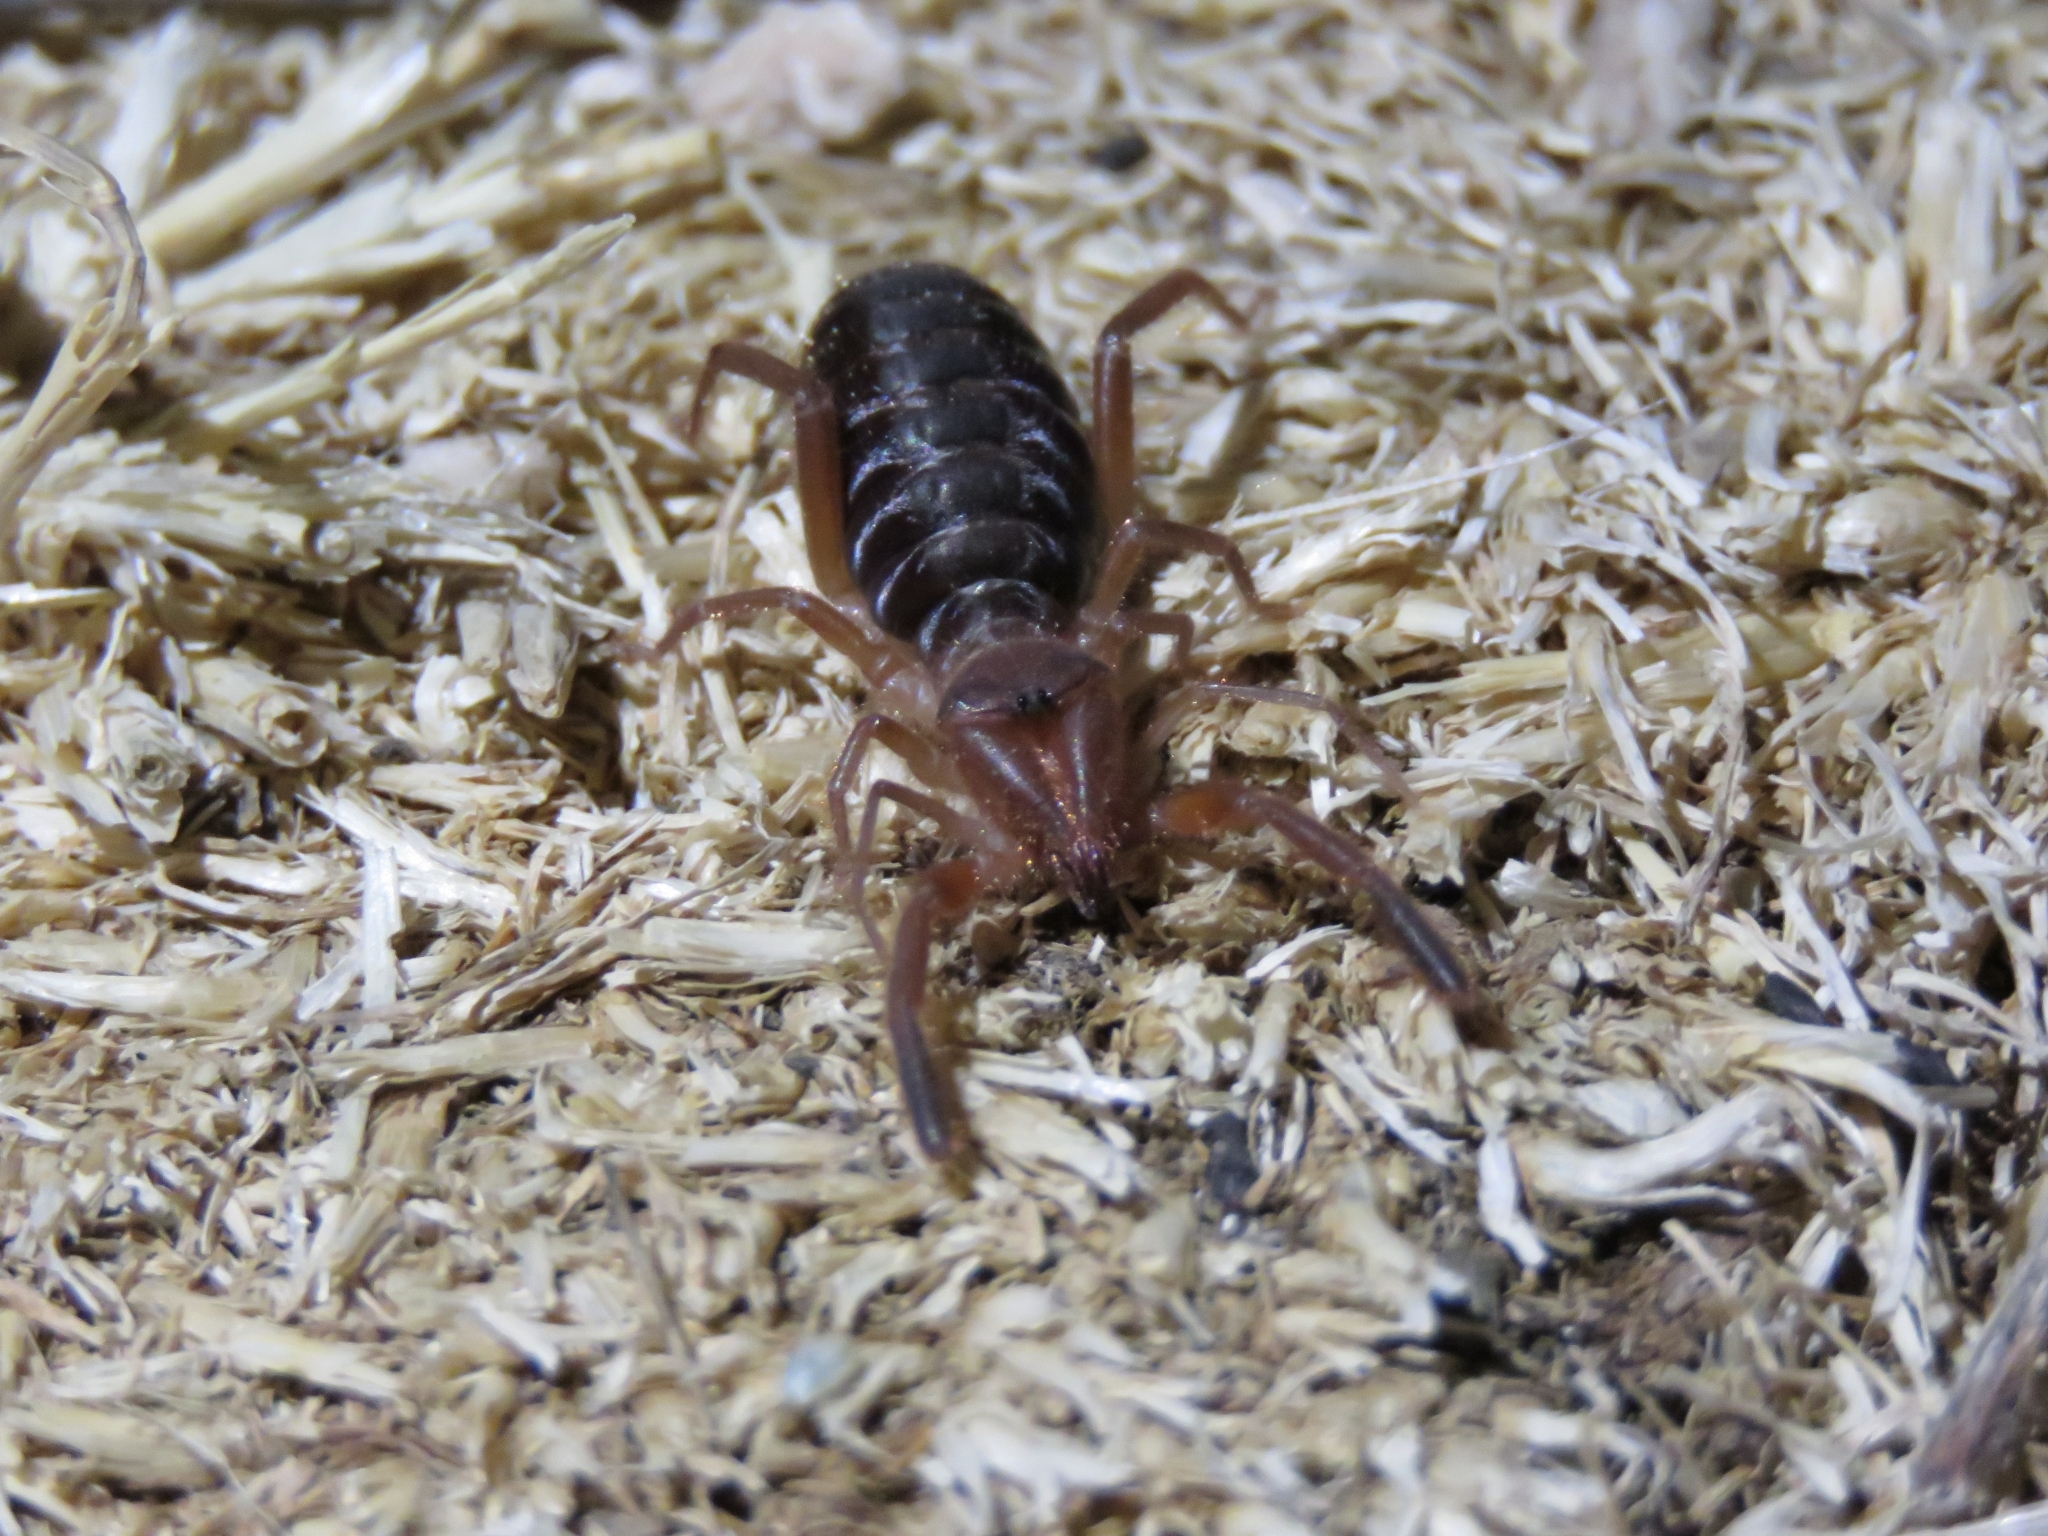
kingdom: Animalia
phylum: Arthropoda
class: Arachnida
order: Solifugae
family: Daesiidae
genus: Gluvia
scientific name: Gluvia dorsalis
